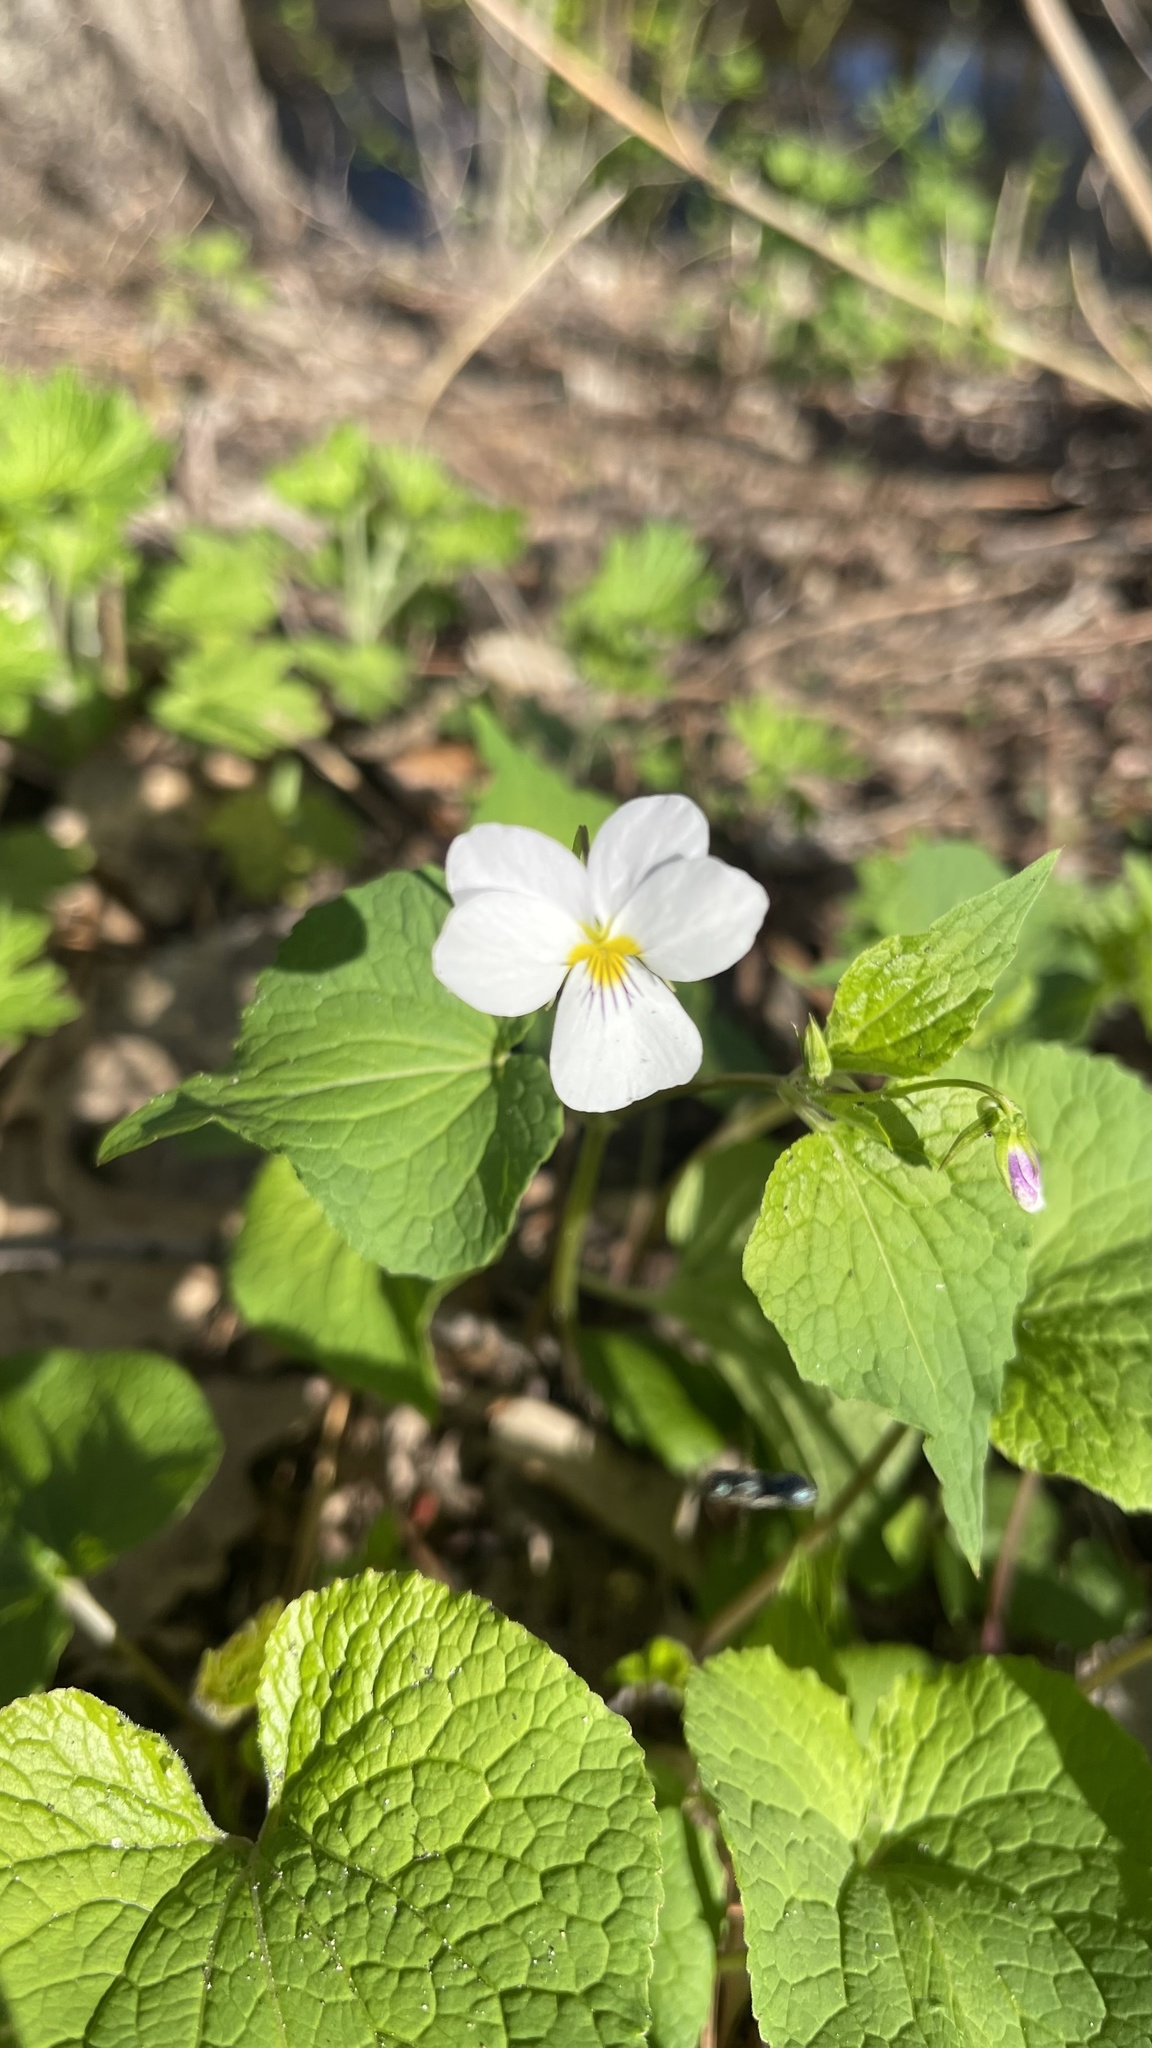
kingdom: Plantae
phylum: Tracheophyta
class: Magnoliopsida
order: Malpighiales
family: Violaceae
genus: Viola
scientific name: Viola canadensis
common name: Canada violet
